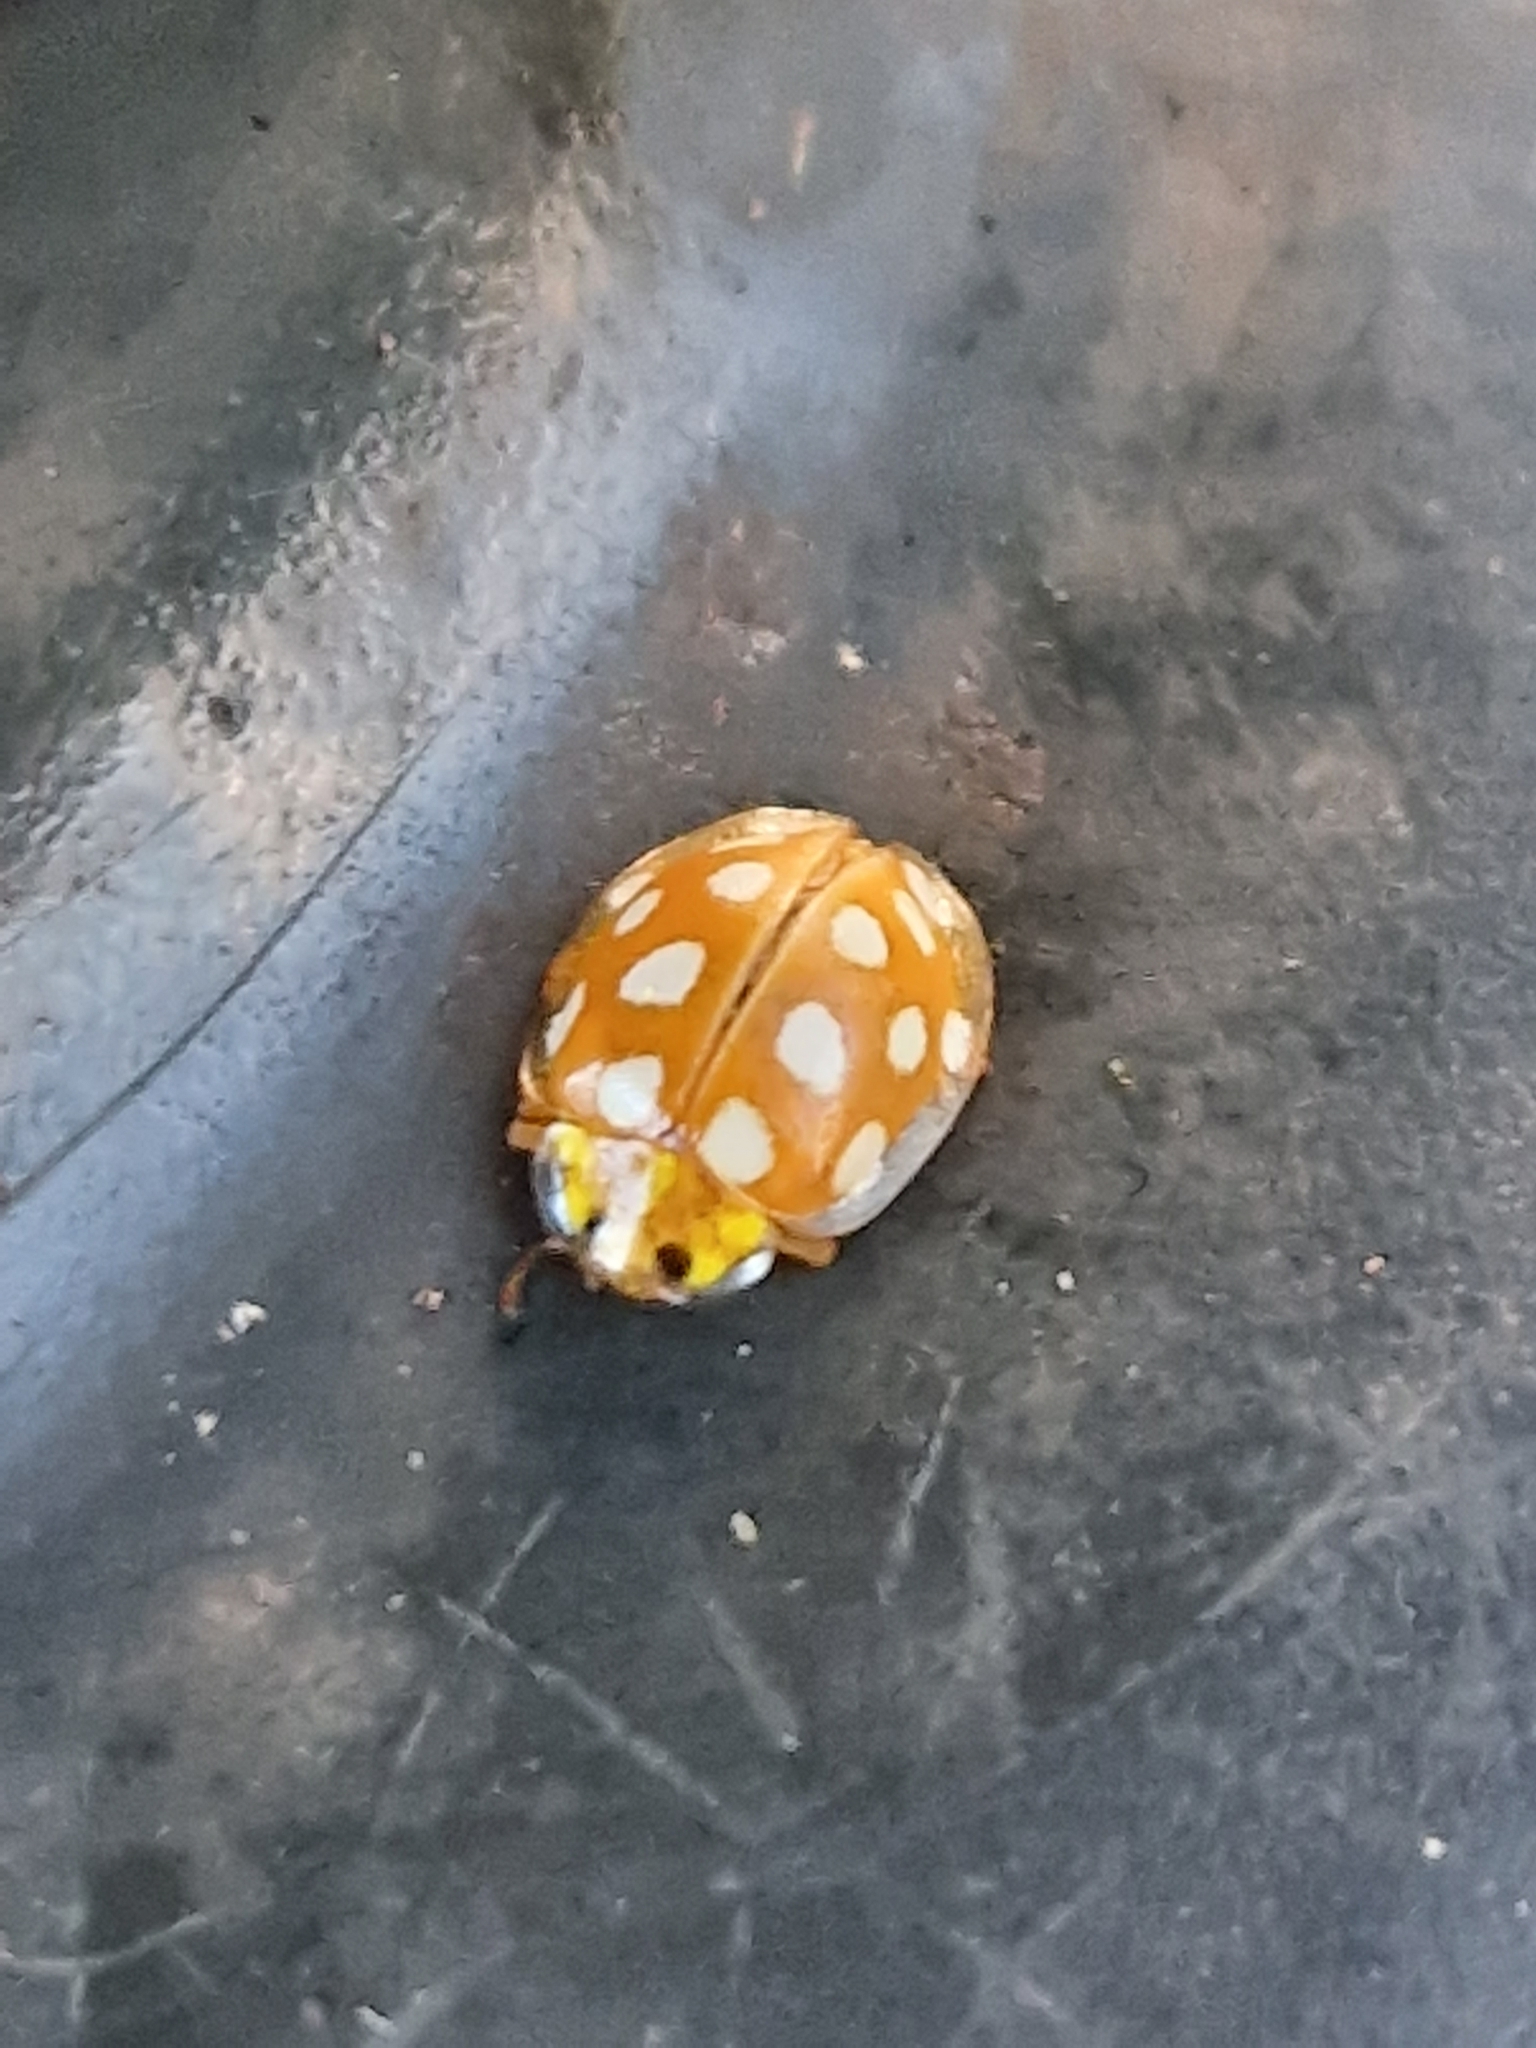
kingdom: Animalia
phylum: Arthropoda
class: Insecta
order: Coleoptera
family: Coccinellidae
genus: Halyzia
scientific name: Halyzia sedecimguttata
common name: Orange ladybird
